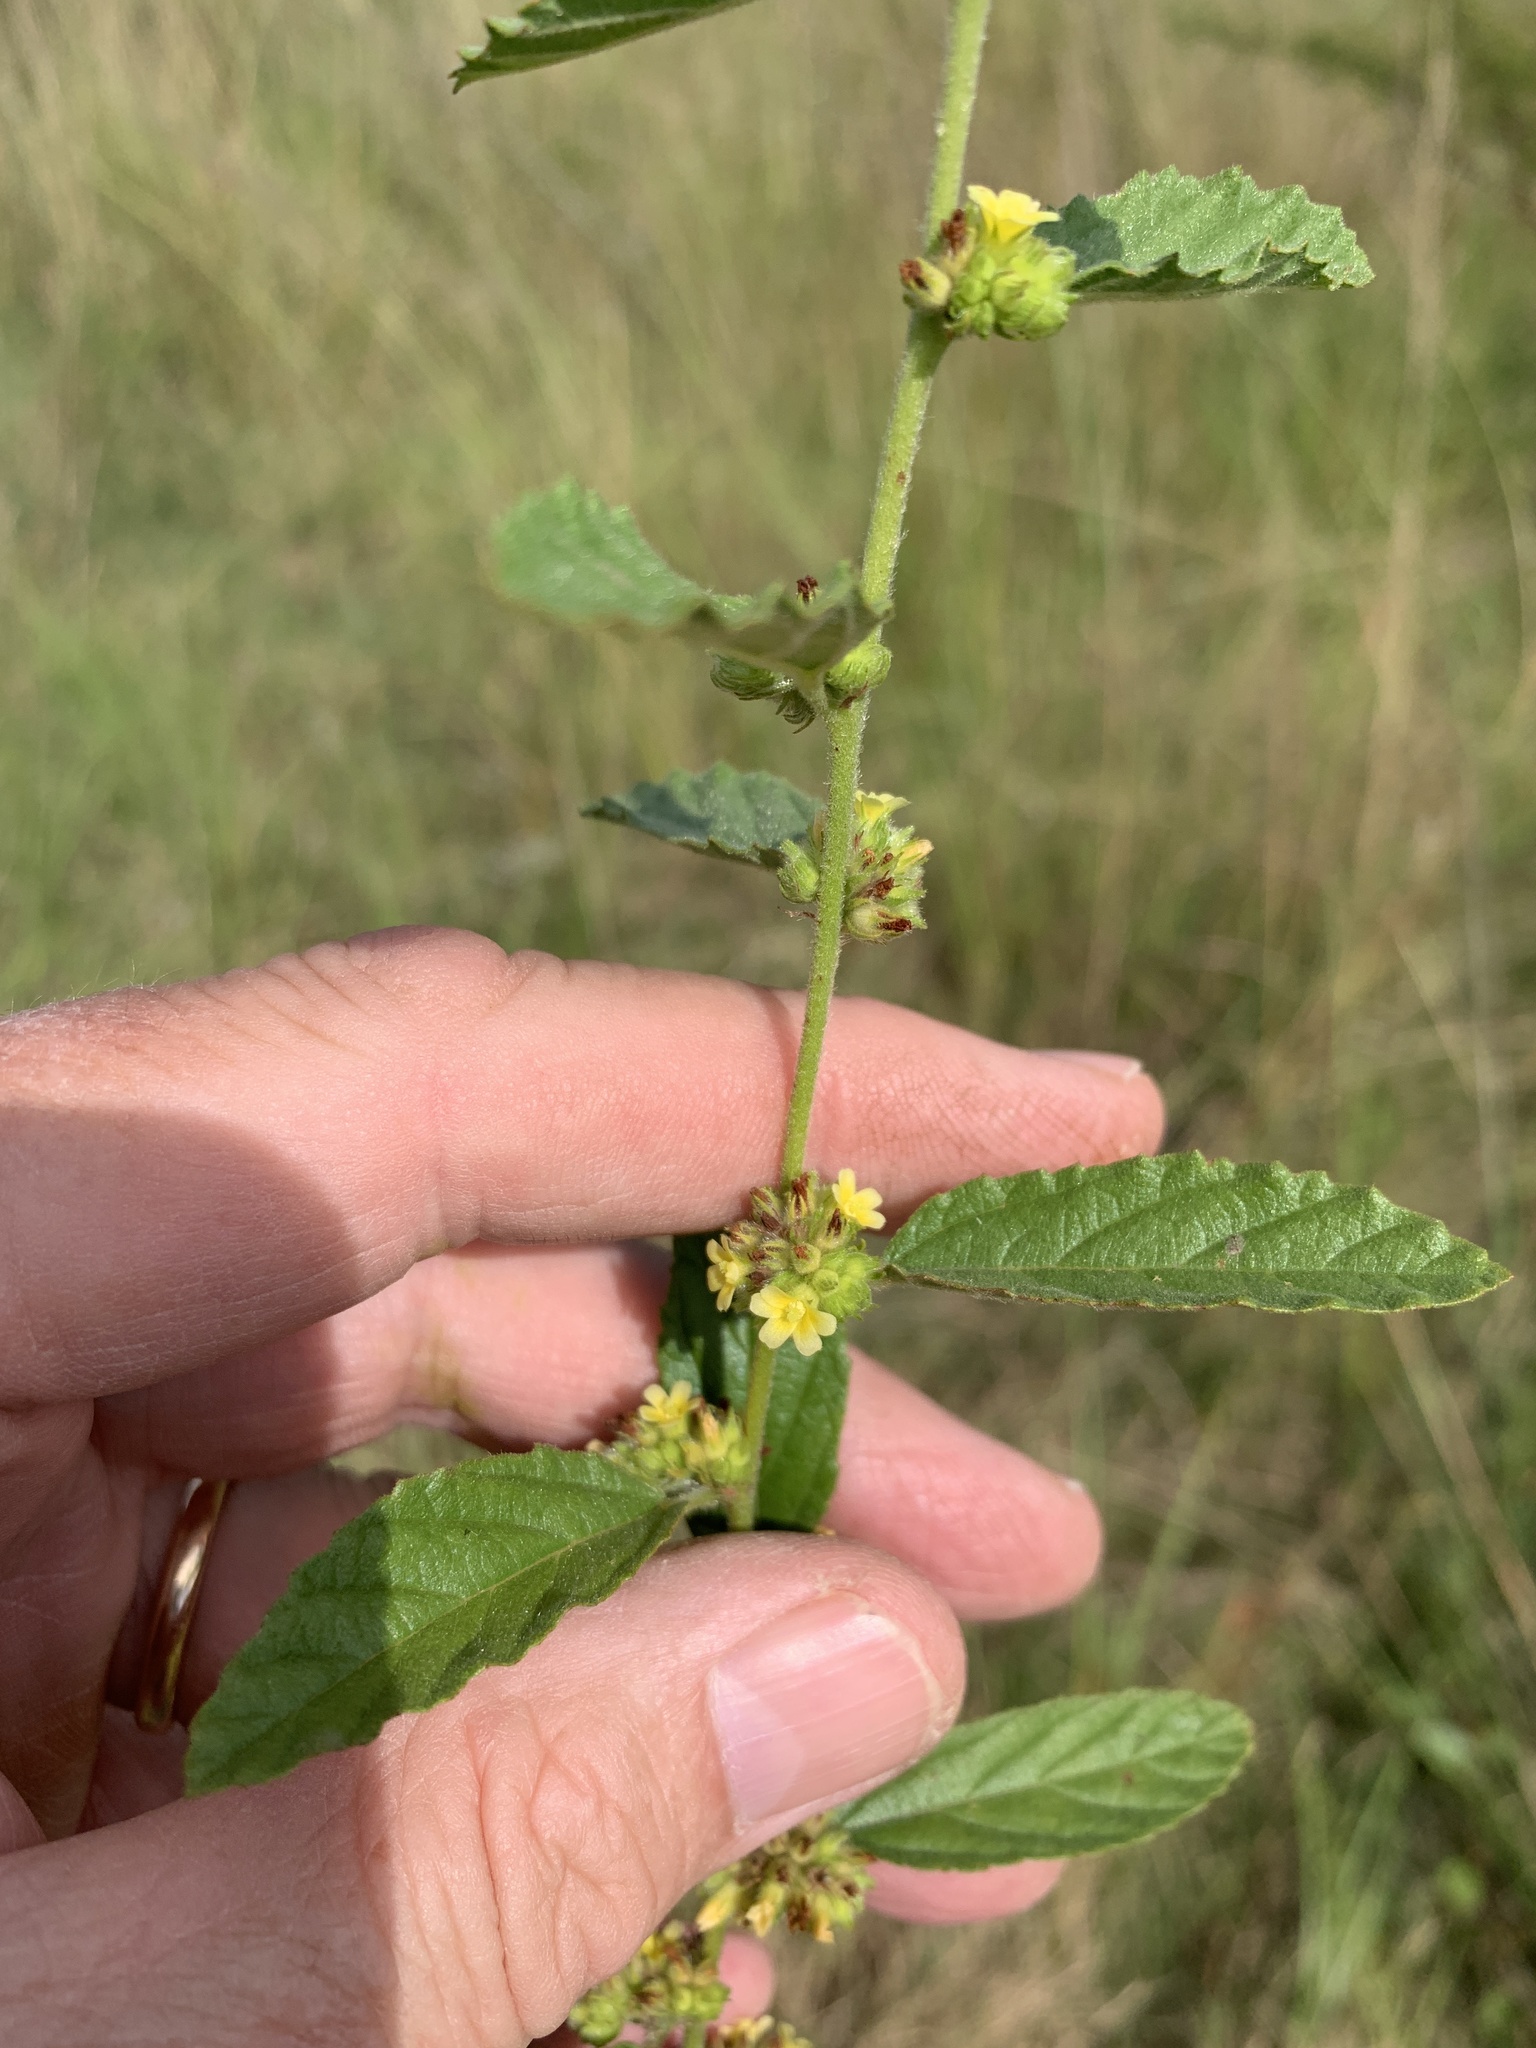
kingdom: Plantae
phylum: Tracheophyta
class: Magnoliopsida
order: Malvales
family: Malvaceae
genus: Waltheria
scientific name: Waltheria indica
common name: Leather-coat
